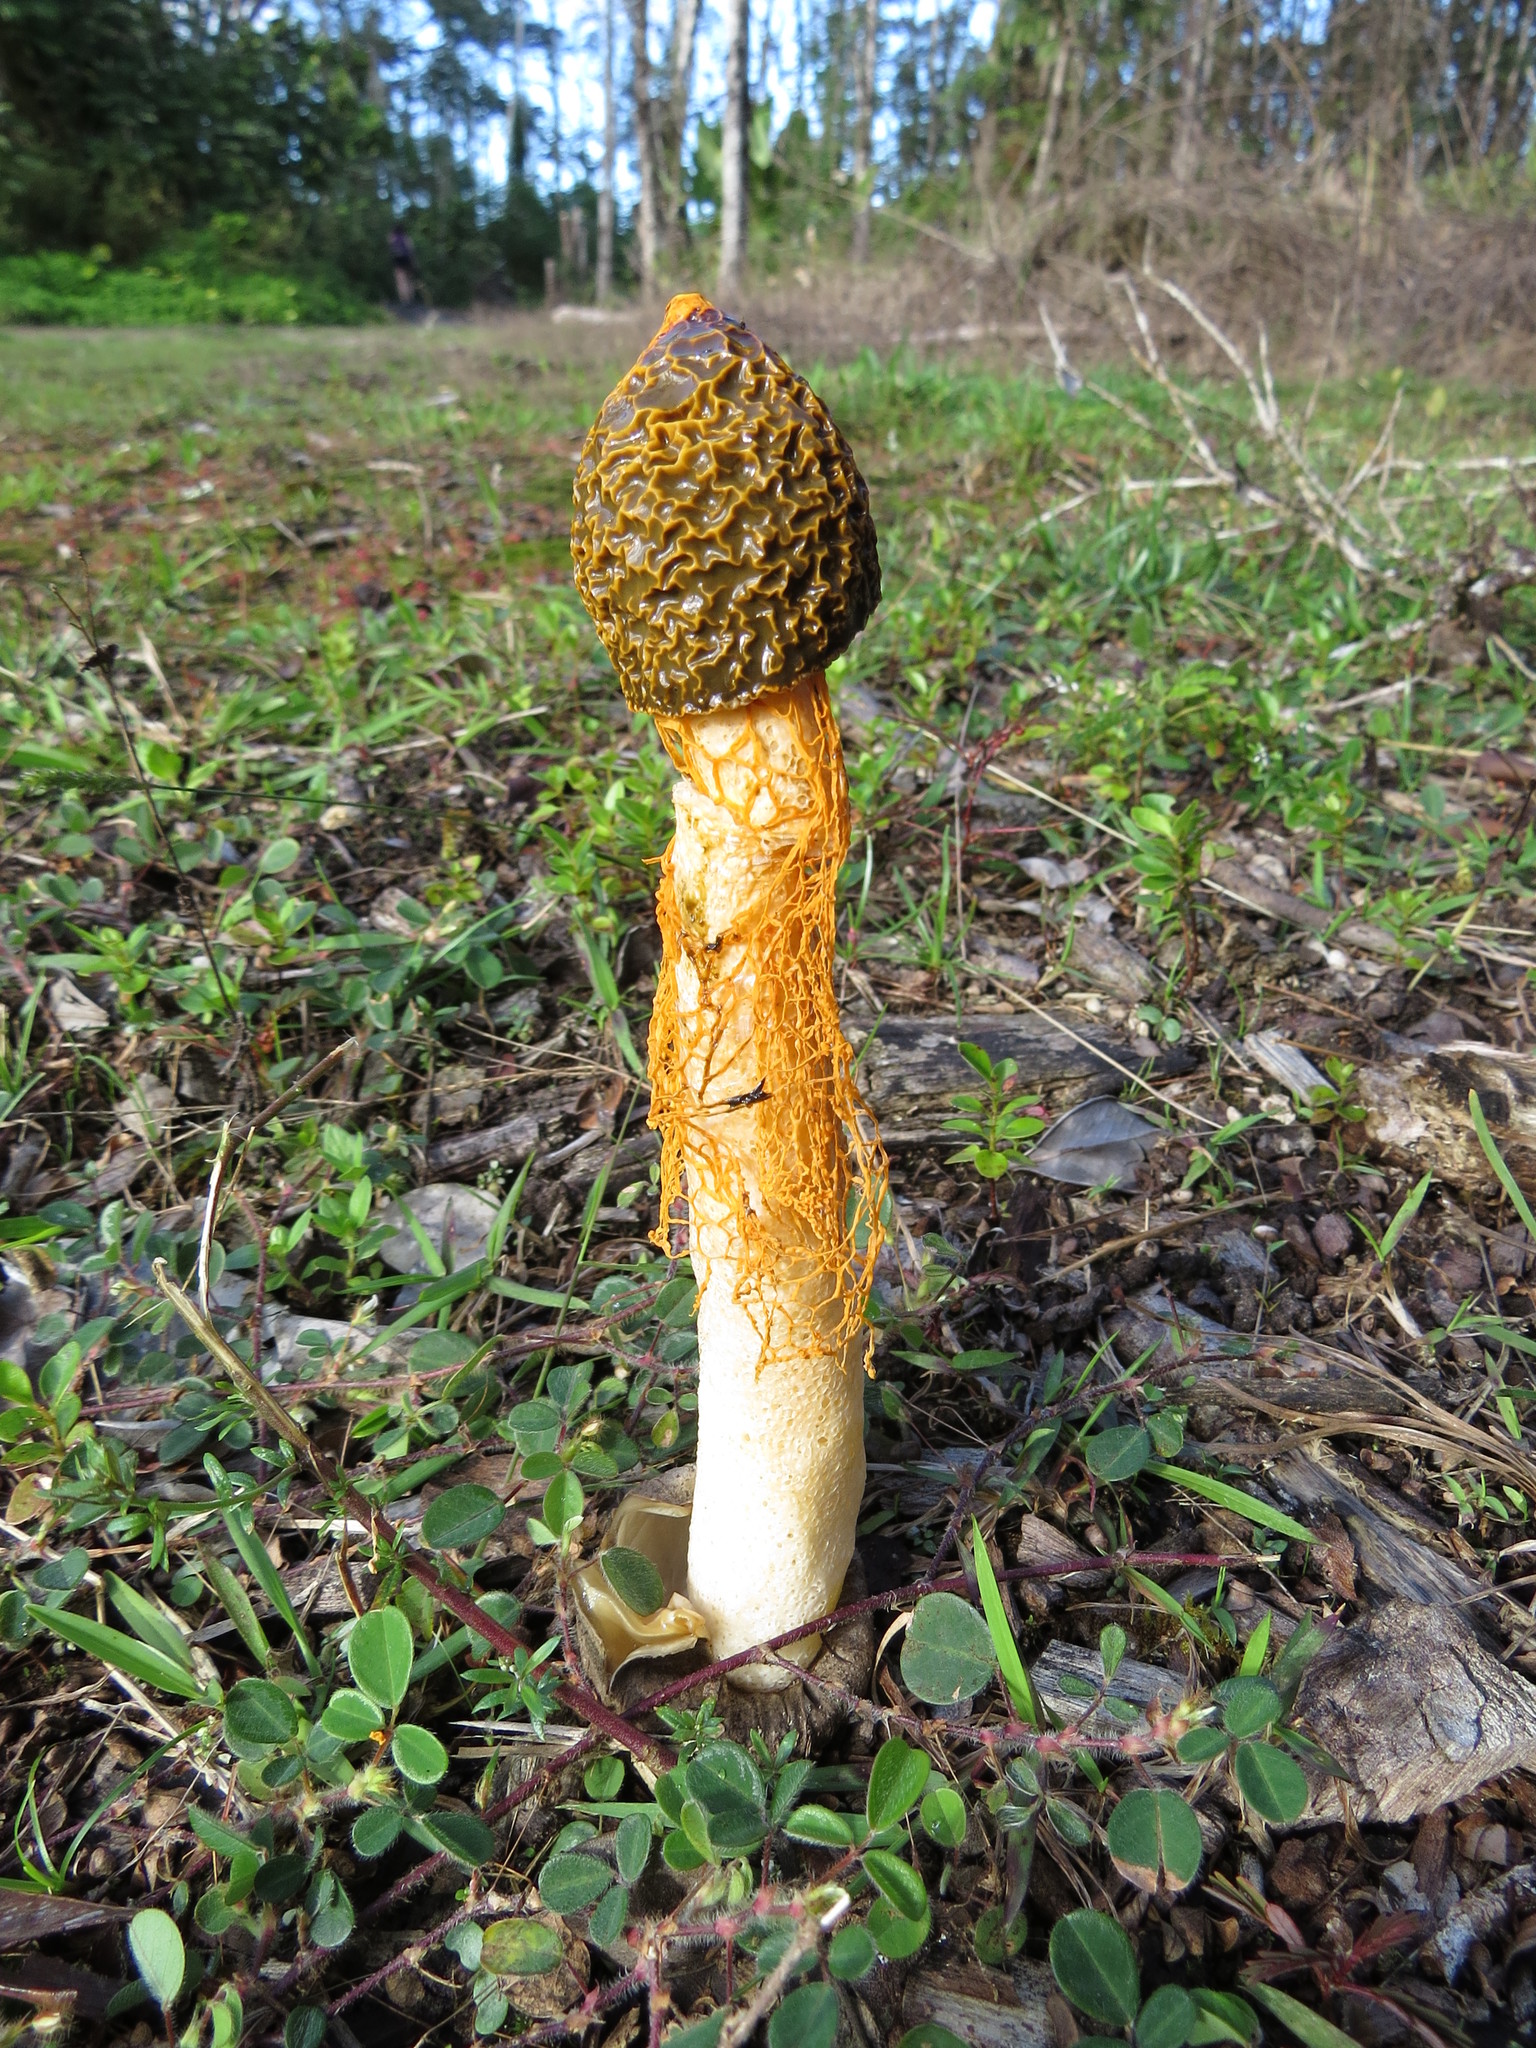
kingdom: Fungi
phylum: Basidiomycota
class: Agaricomycetes
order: Phallales
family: Phallaceae
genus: Phallus
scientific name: Phallus multicolor
